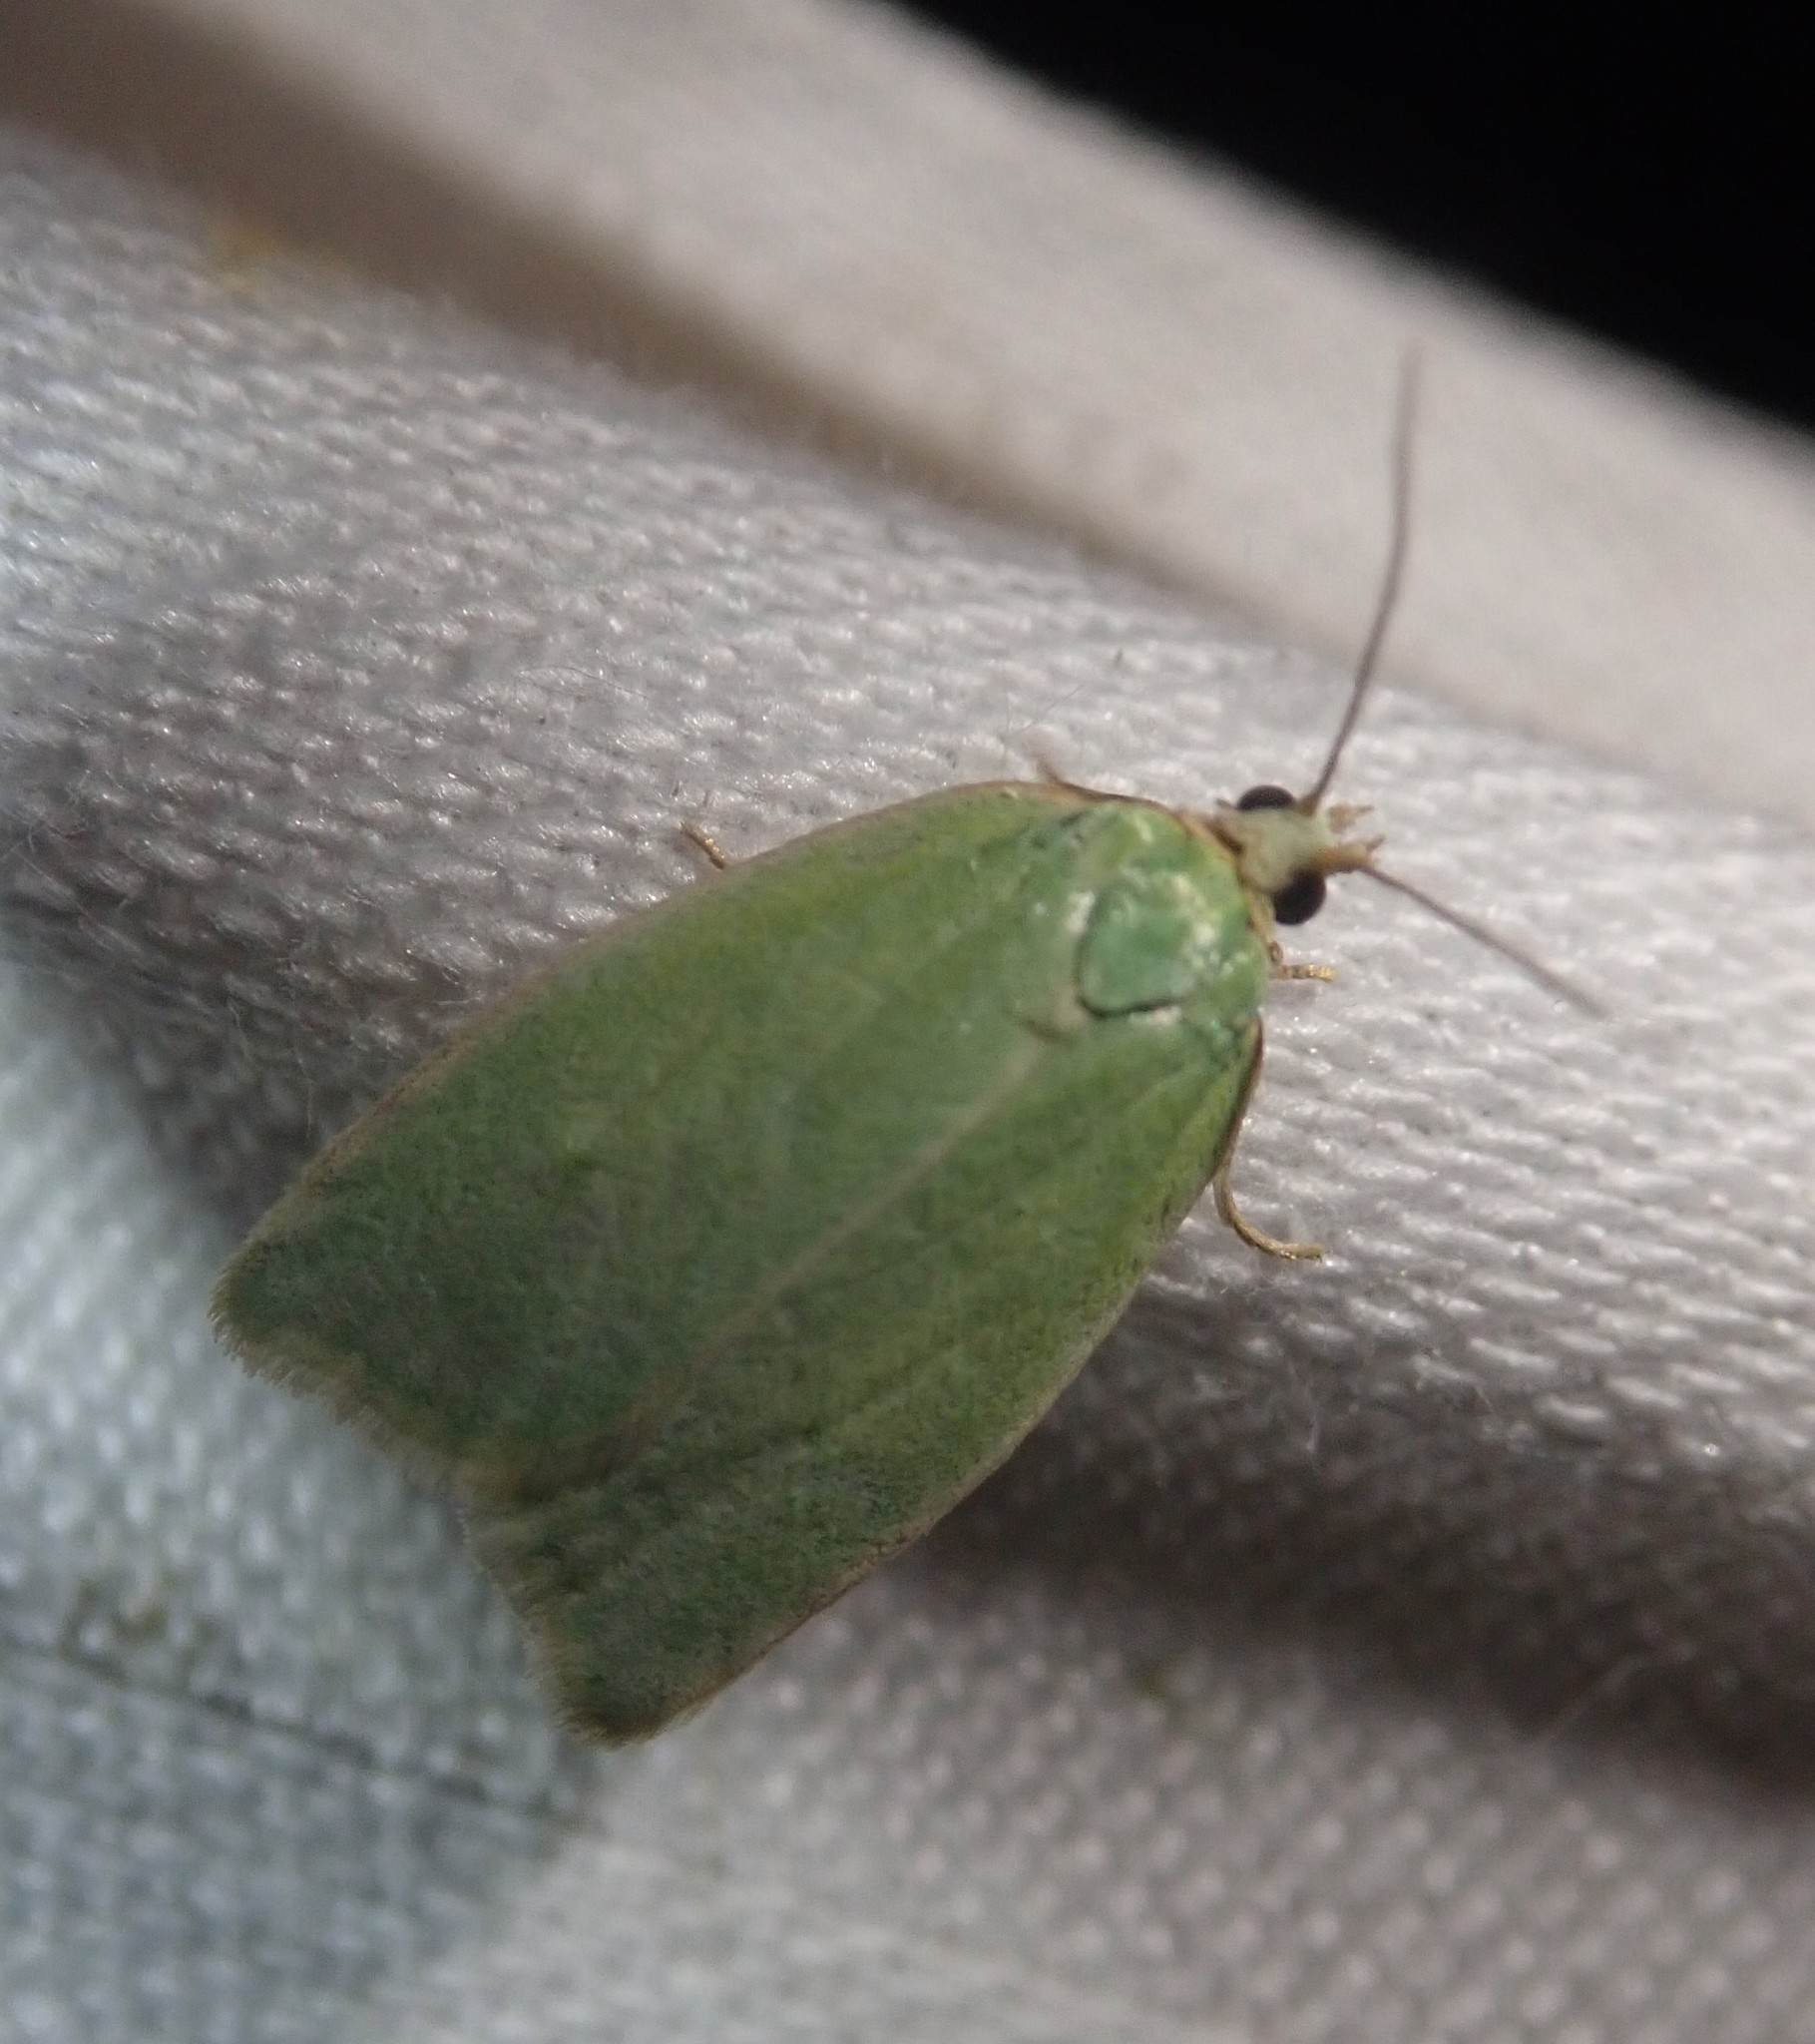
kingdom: Animalia
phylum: Arthropoda
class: Insecta
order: Lepidoptera
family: Tortricidae
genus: Tortrix
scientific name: Tortrix viridana
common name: Green oak tortrix
